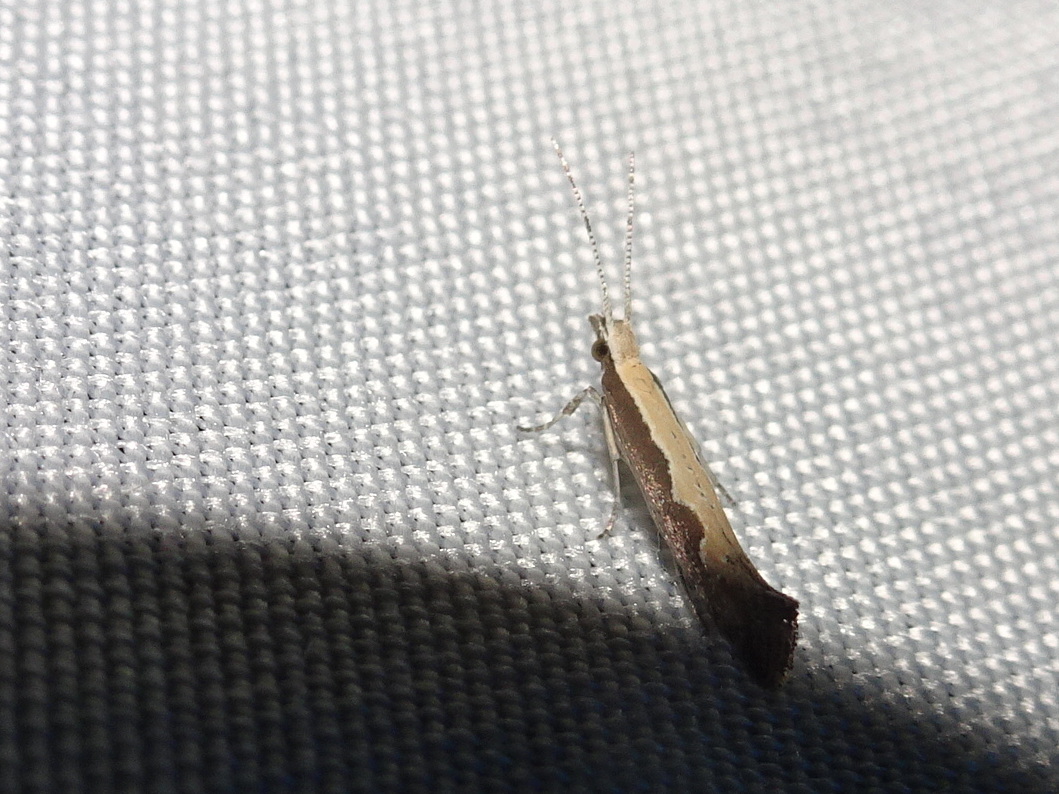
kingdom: Animalia
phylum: Arthropoda
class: Insecta
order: Lepidoptera
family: Plutellidae
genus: Plutella
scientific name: Plutella xylostella
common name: Diamond-back moth
